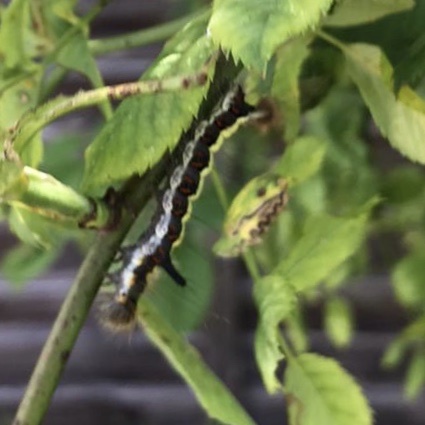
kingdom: Animalia
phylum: Arthropoda
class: Insecta
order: Lepidoptera
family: Noctuidae
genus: Acronicta
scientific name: Acronicta psi
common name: Grey dagger
